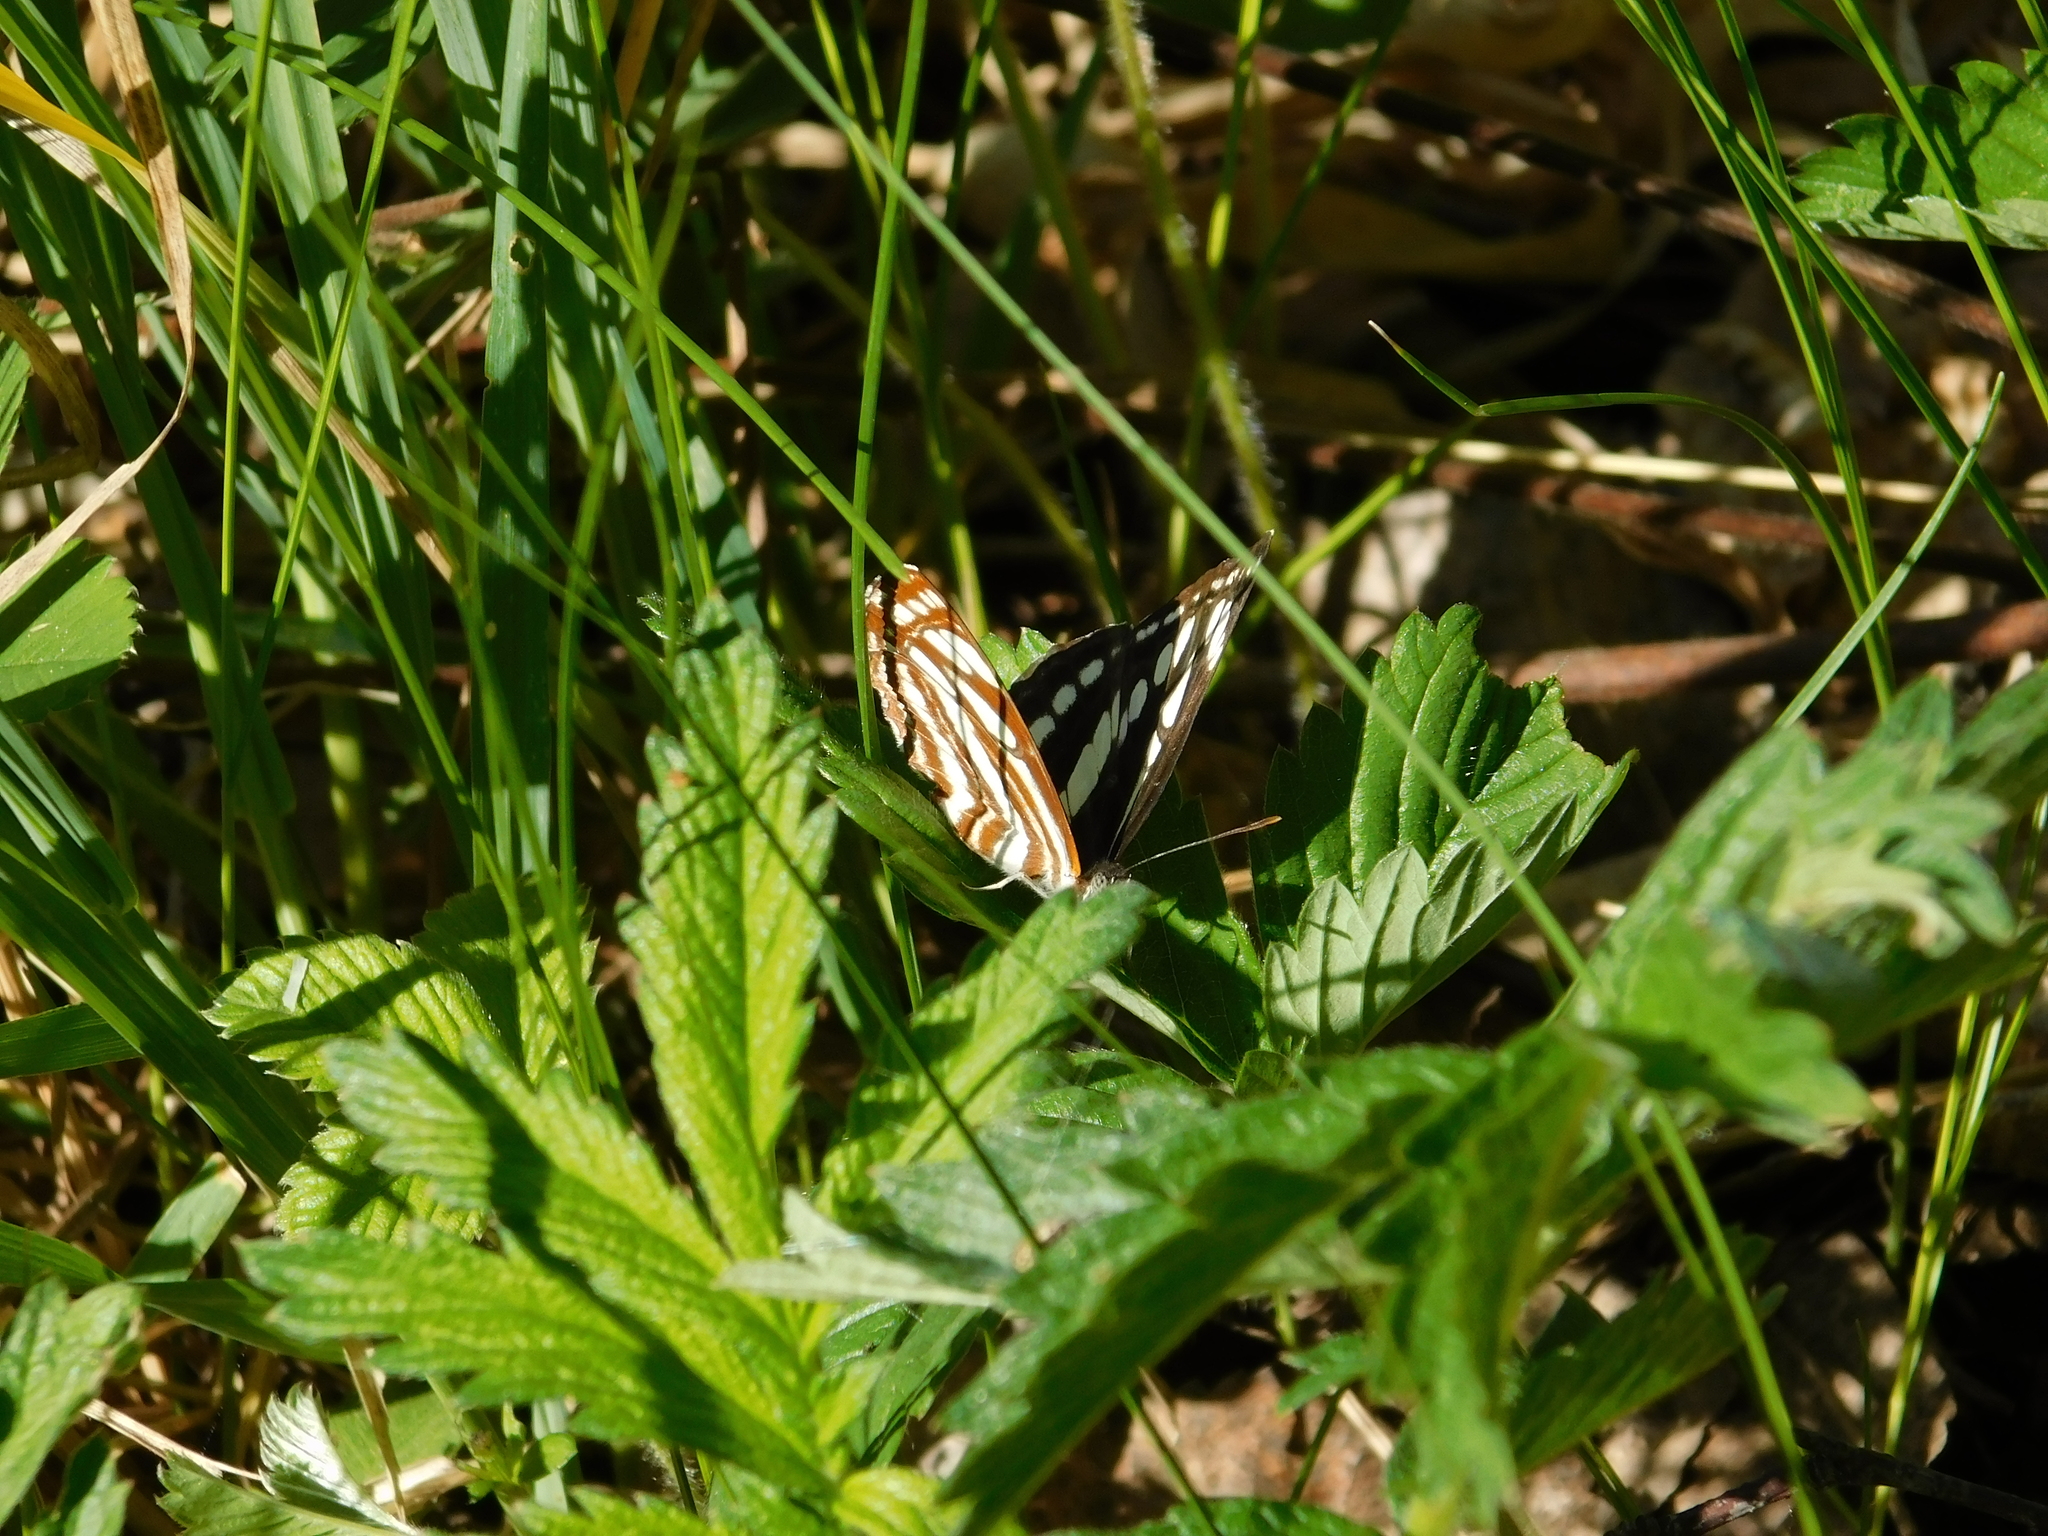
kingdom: Animalia
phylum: Arthropoda
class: Insecta
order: Lepidoptera
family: Nymphalidae
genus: Neptis
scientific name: Neptis sappho
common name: Common glider
